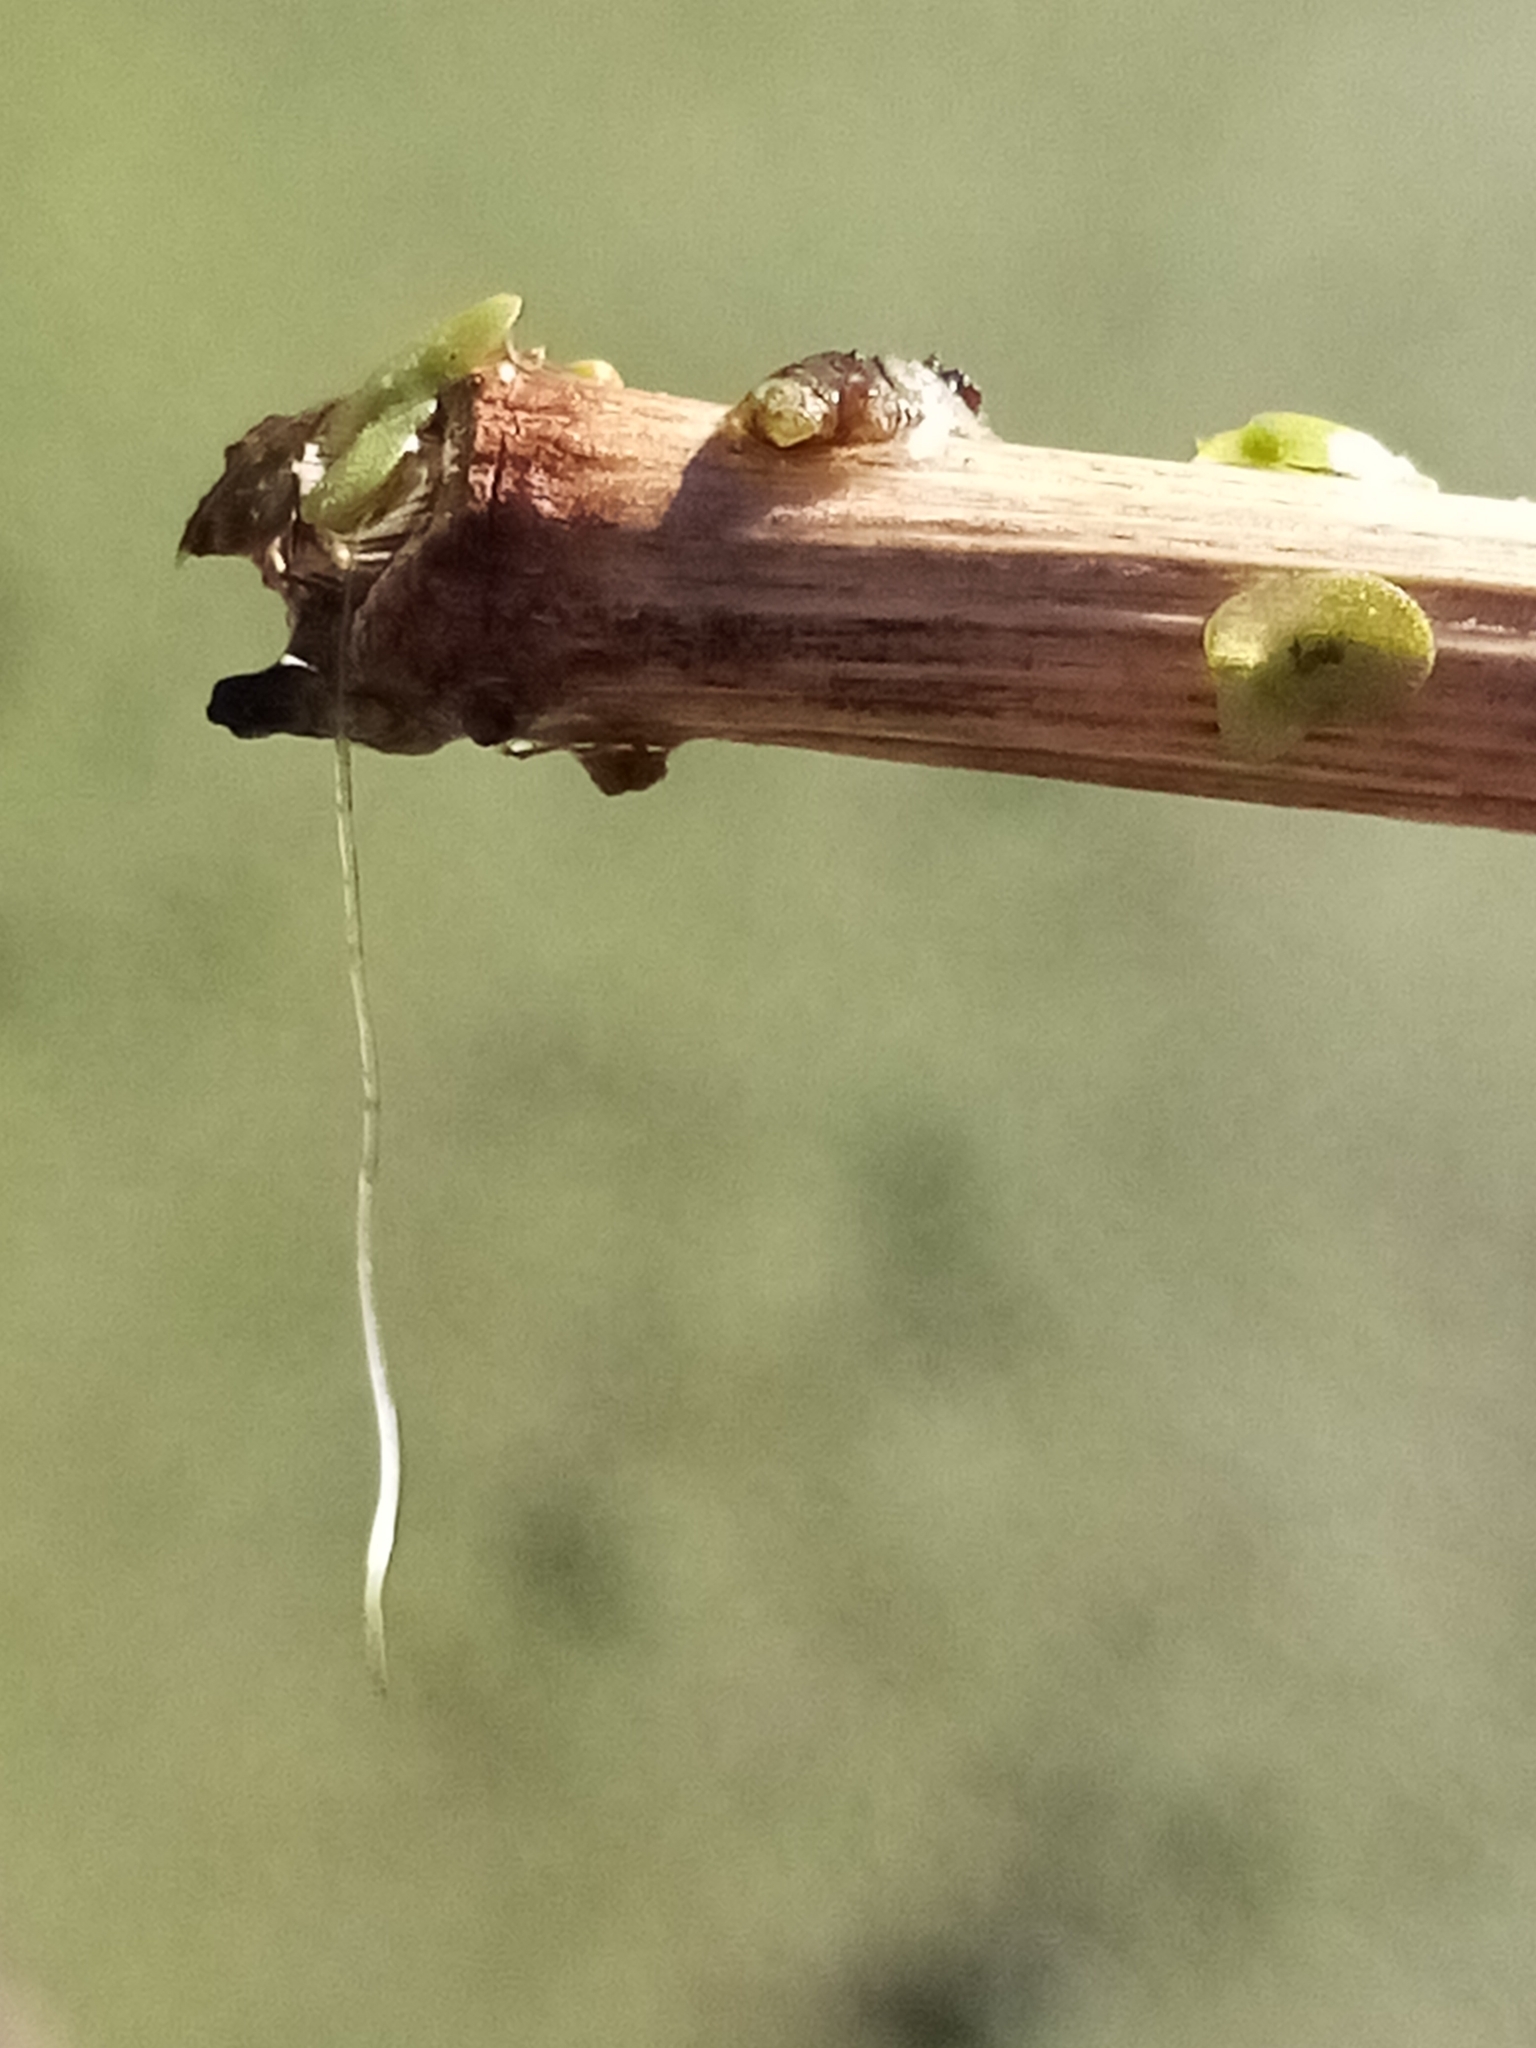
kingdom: Plantae
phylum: Tracheophyta
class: Liliopsida
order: Alismatales
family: Araceae
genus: Lemna
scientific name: Lemna disperma
